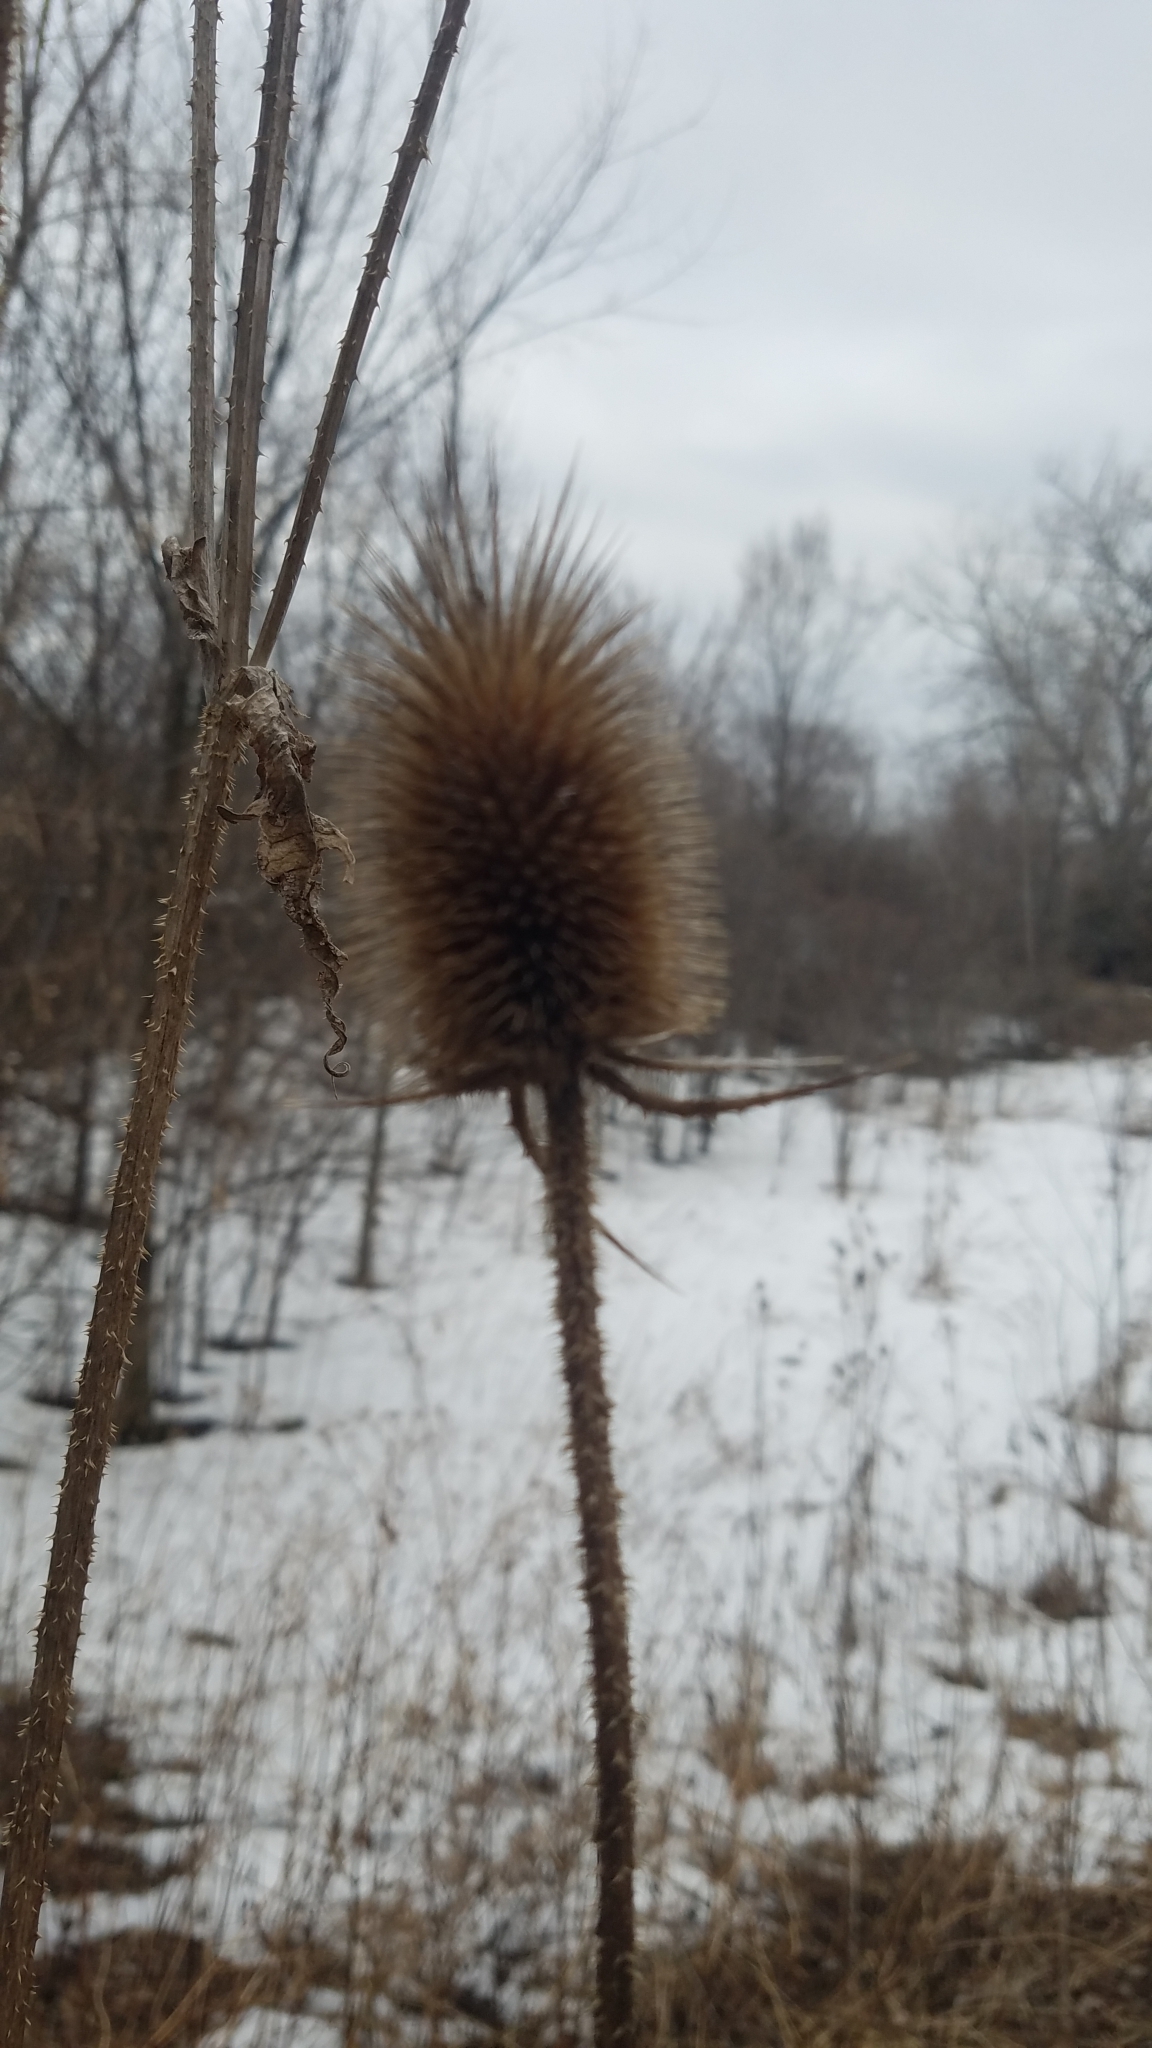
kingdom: Plantae
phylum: Tracheophyta
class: Magnoliopsida
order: Dipsacales
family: Caprifoliaceae
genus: Dipsacus
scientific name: Dipsacus laciniatus
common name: Cut-leaved teasel
